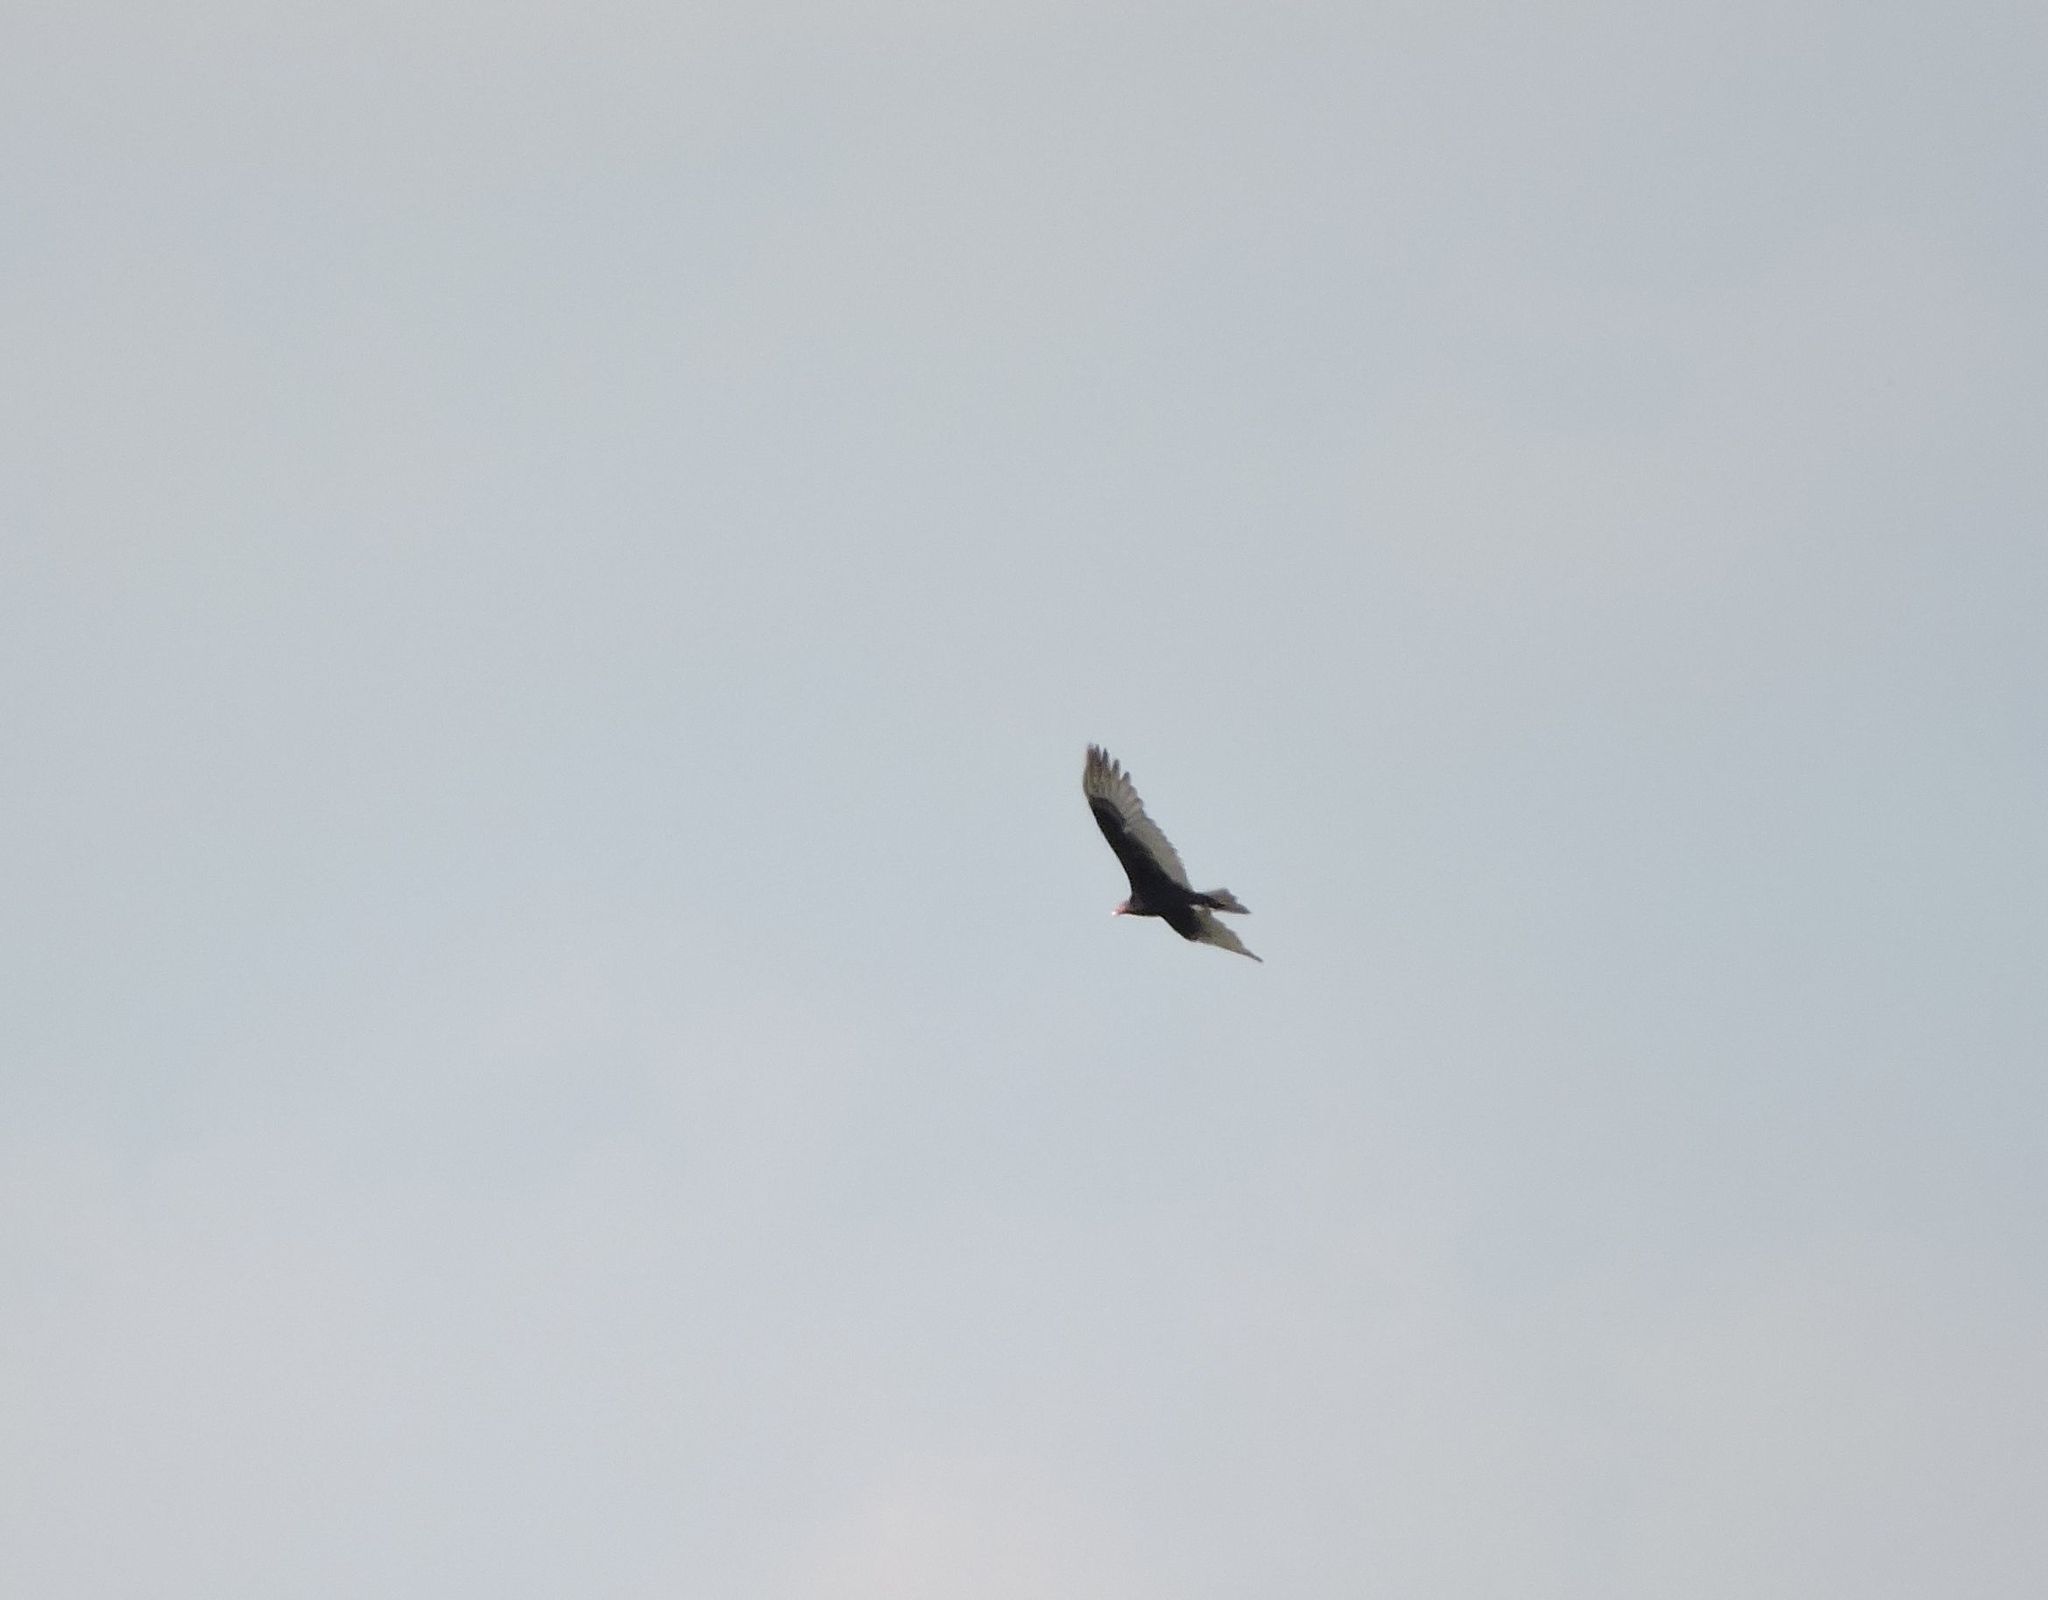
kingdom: Animalia
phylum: Chordata
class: Aves
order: Accipitriformes
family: Cathartidae
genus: Cathartes
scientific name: Cathartes aura
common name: Turkey vulture
